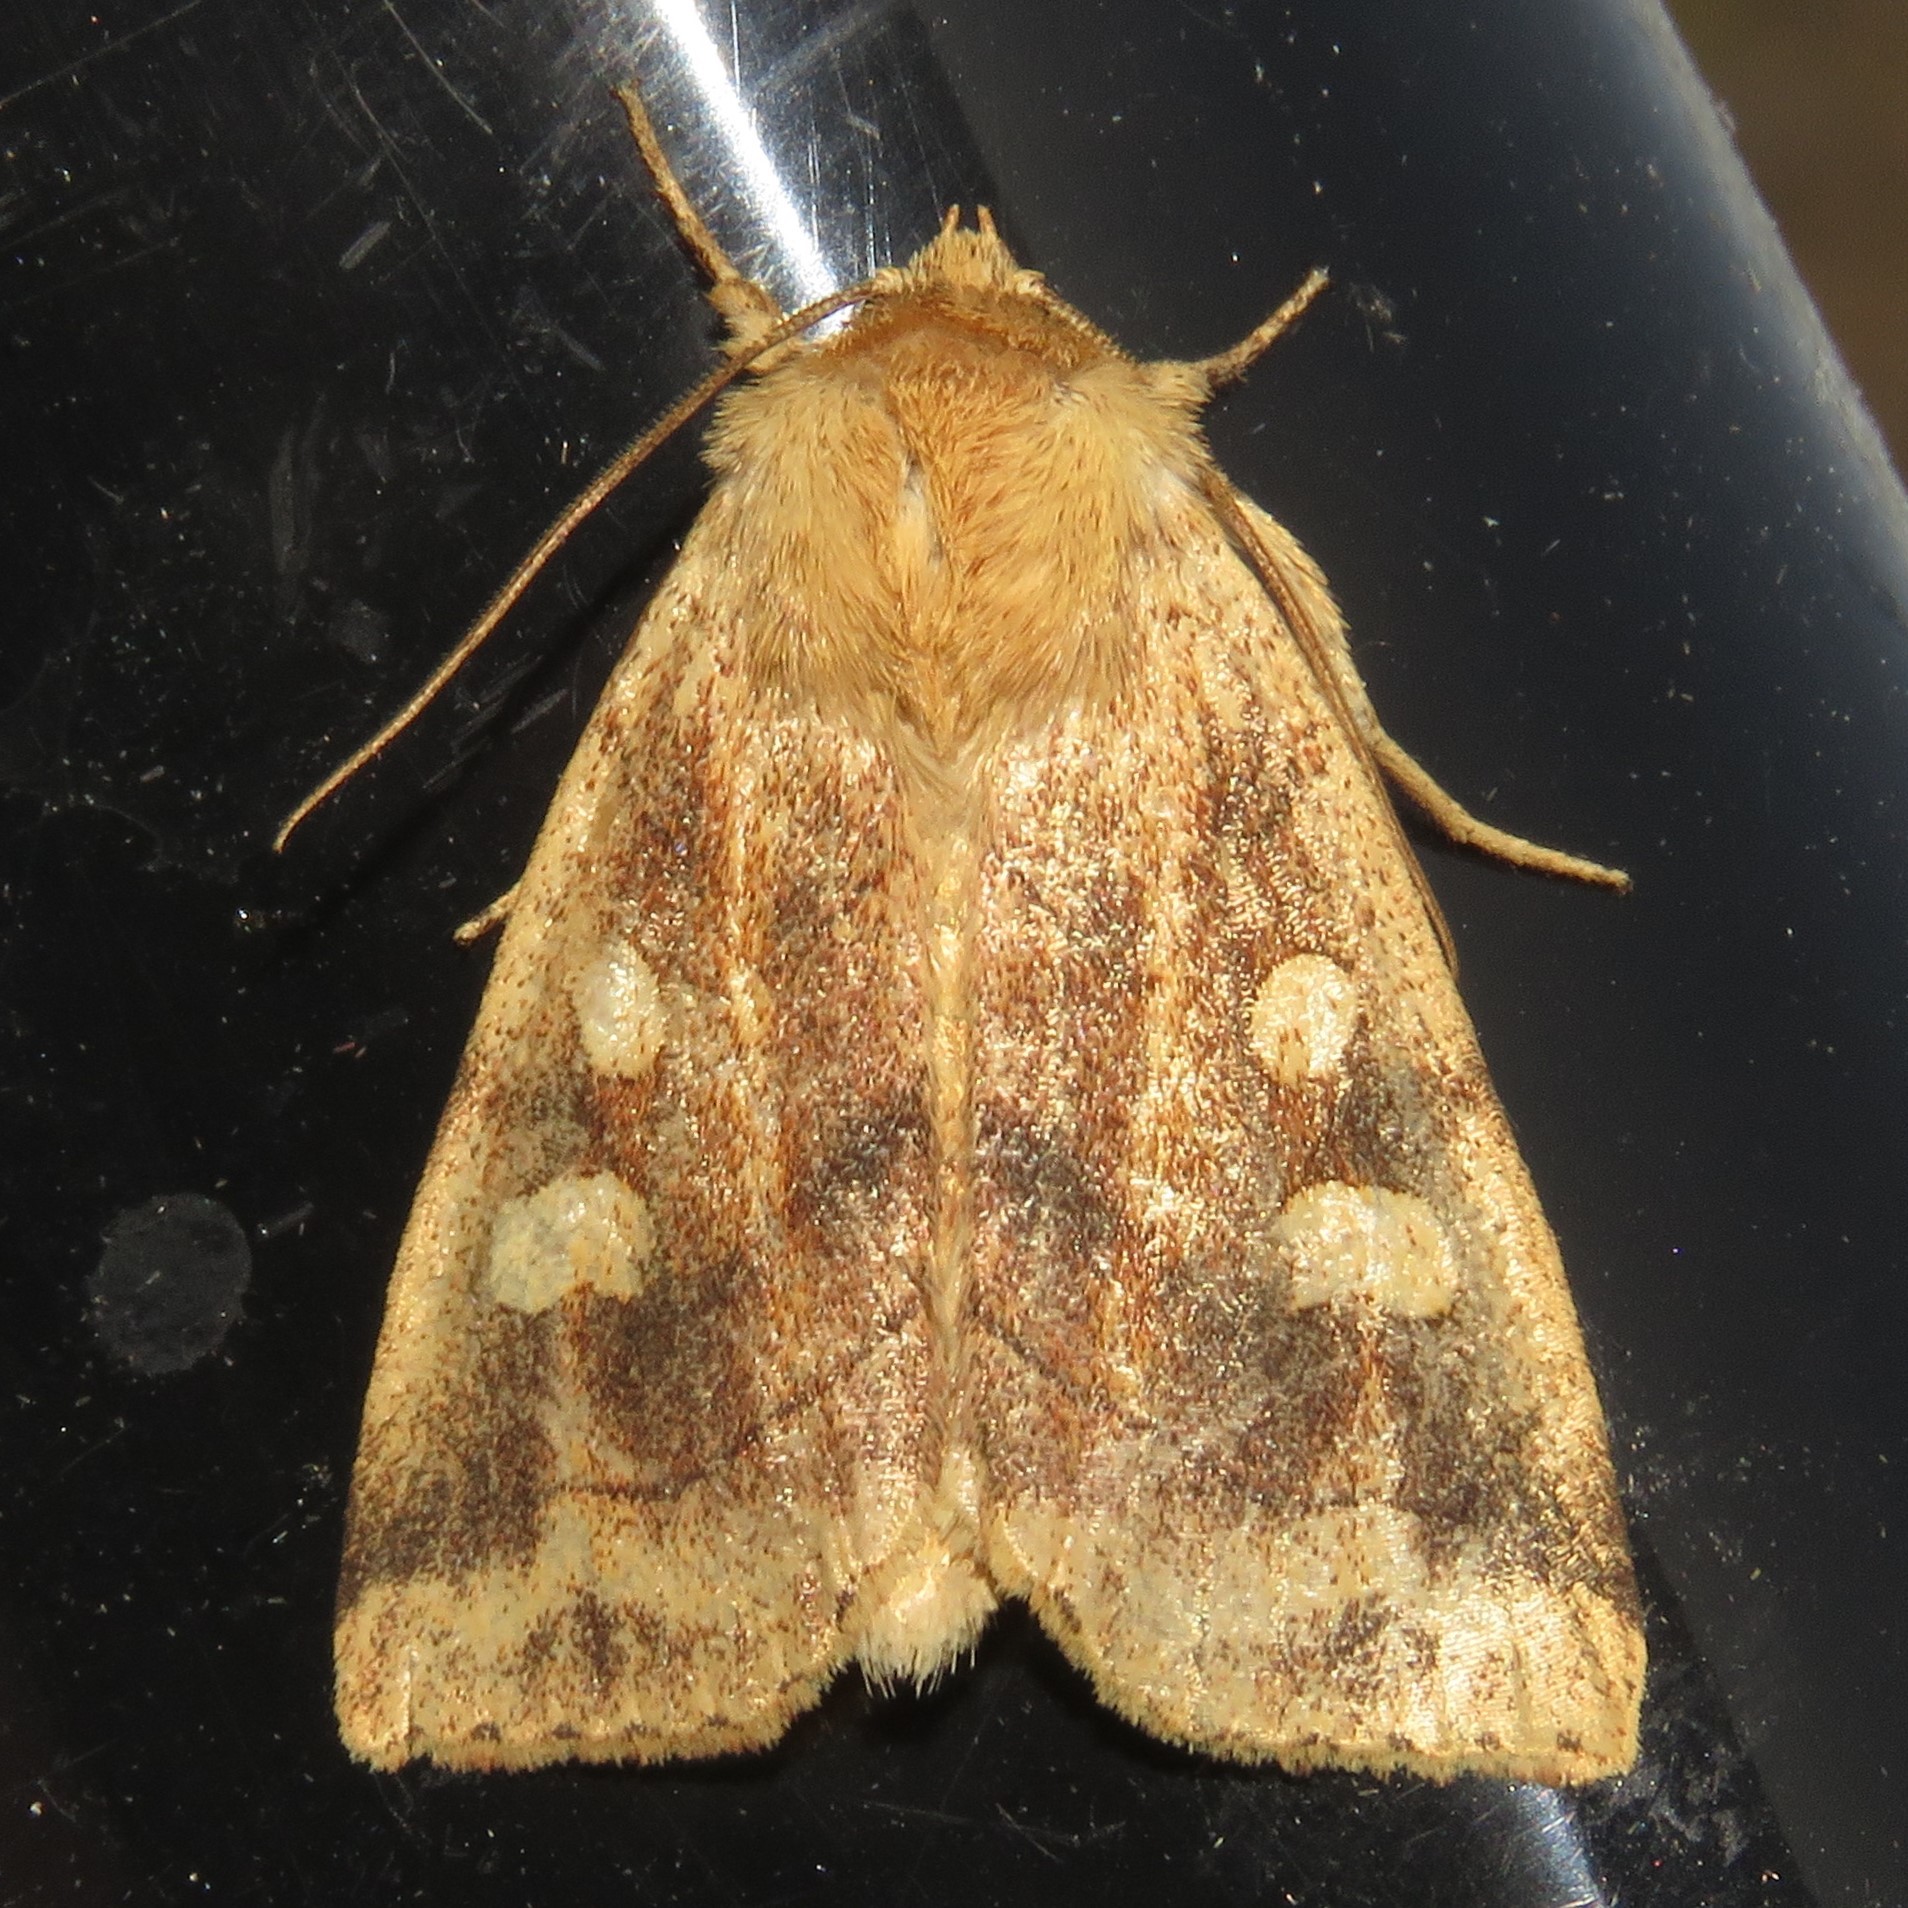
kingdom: Animalia
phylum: Arthropoda
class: Insecta
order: Lepidoptera
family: Noctuidae
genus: Enargia
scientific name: Enargia decolor
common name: Aspen twoleaf tier moth
